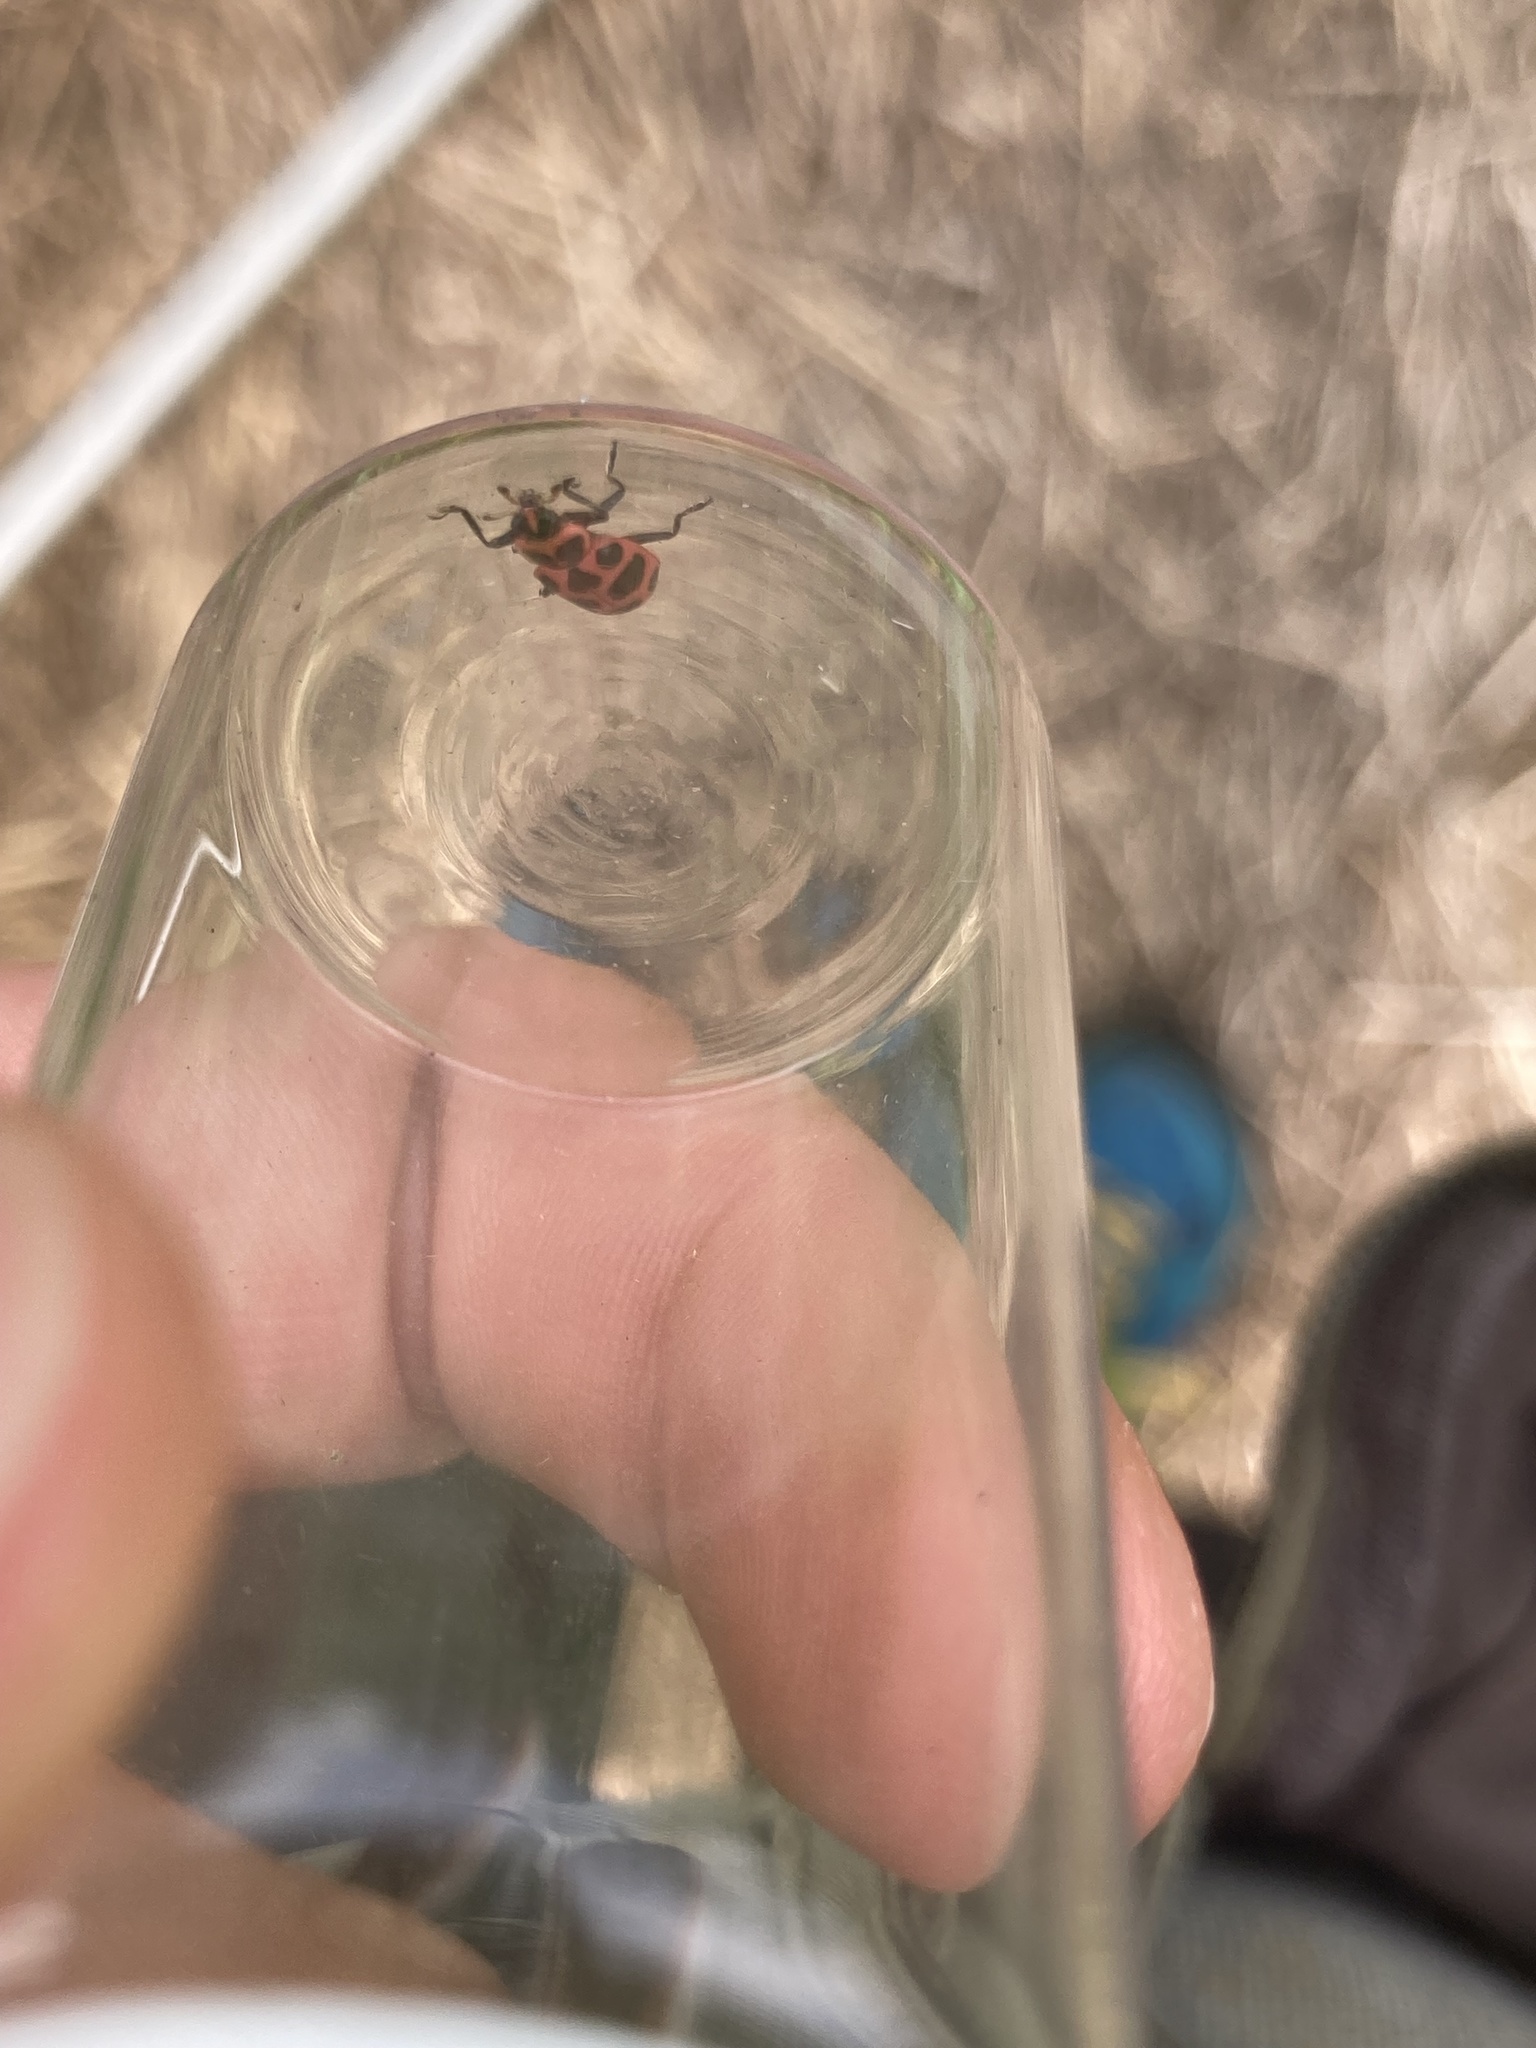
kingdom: Animalia
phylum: Arthropoda
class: Insecta
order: Coleoptera
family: Coccinellidae
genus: Coleomegilla
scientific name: Coleomegilla maculata
